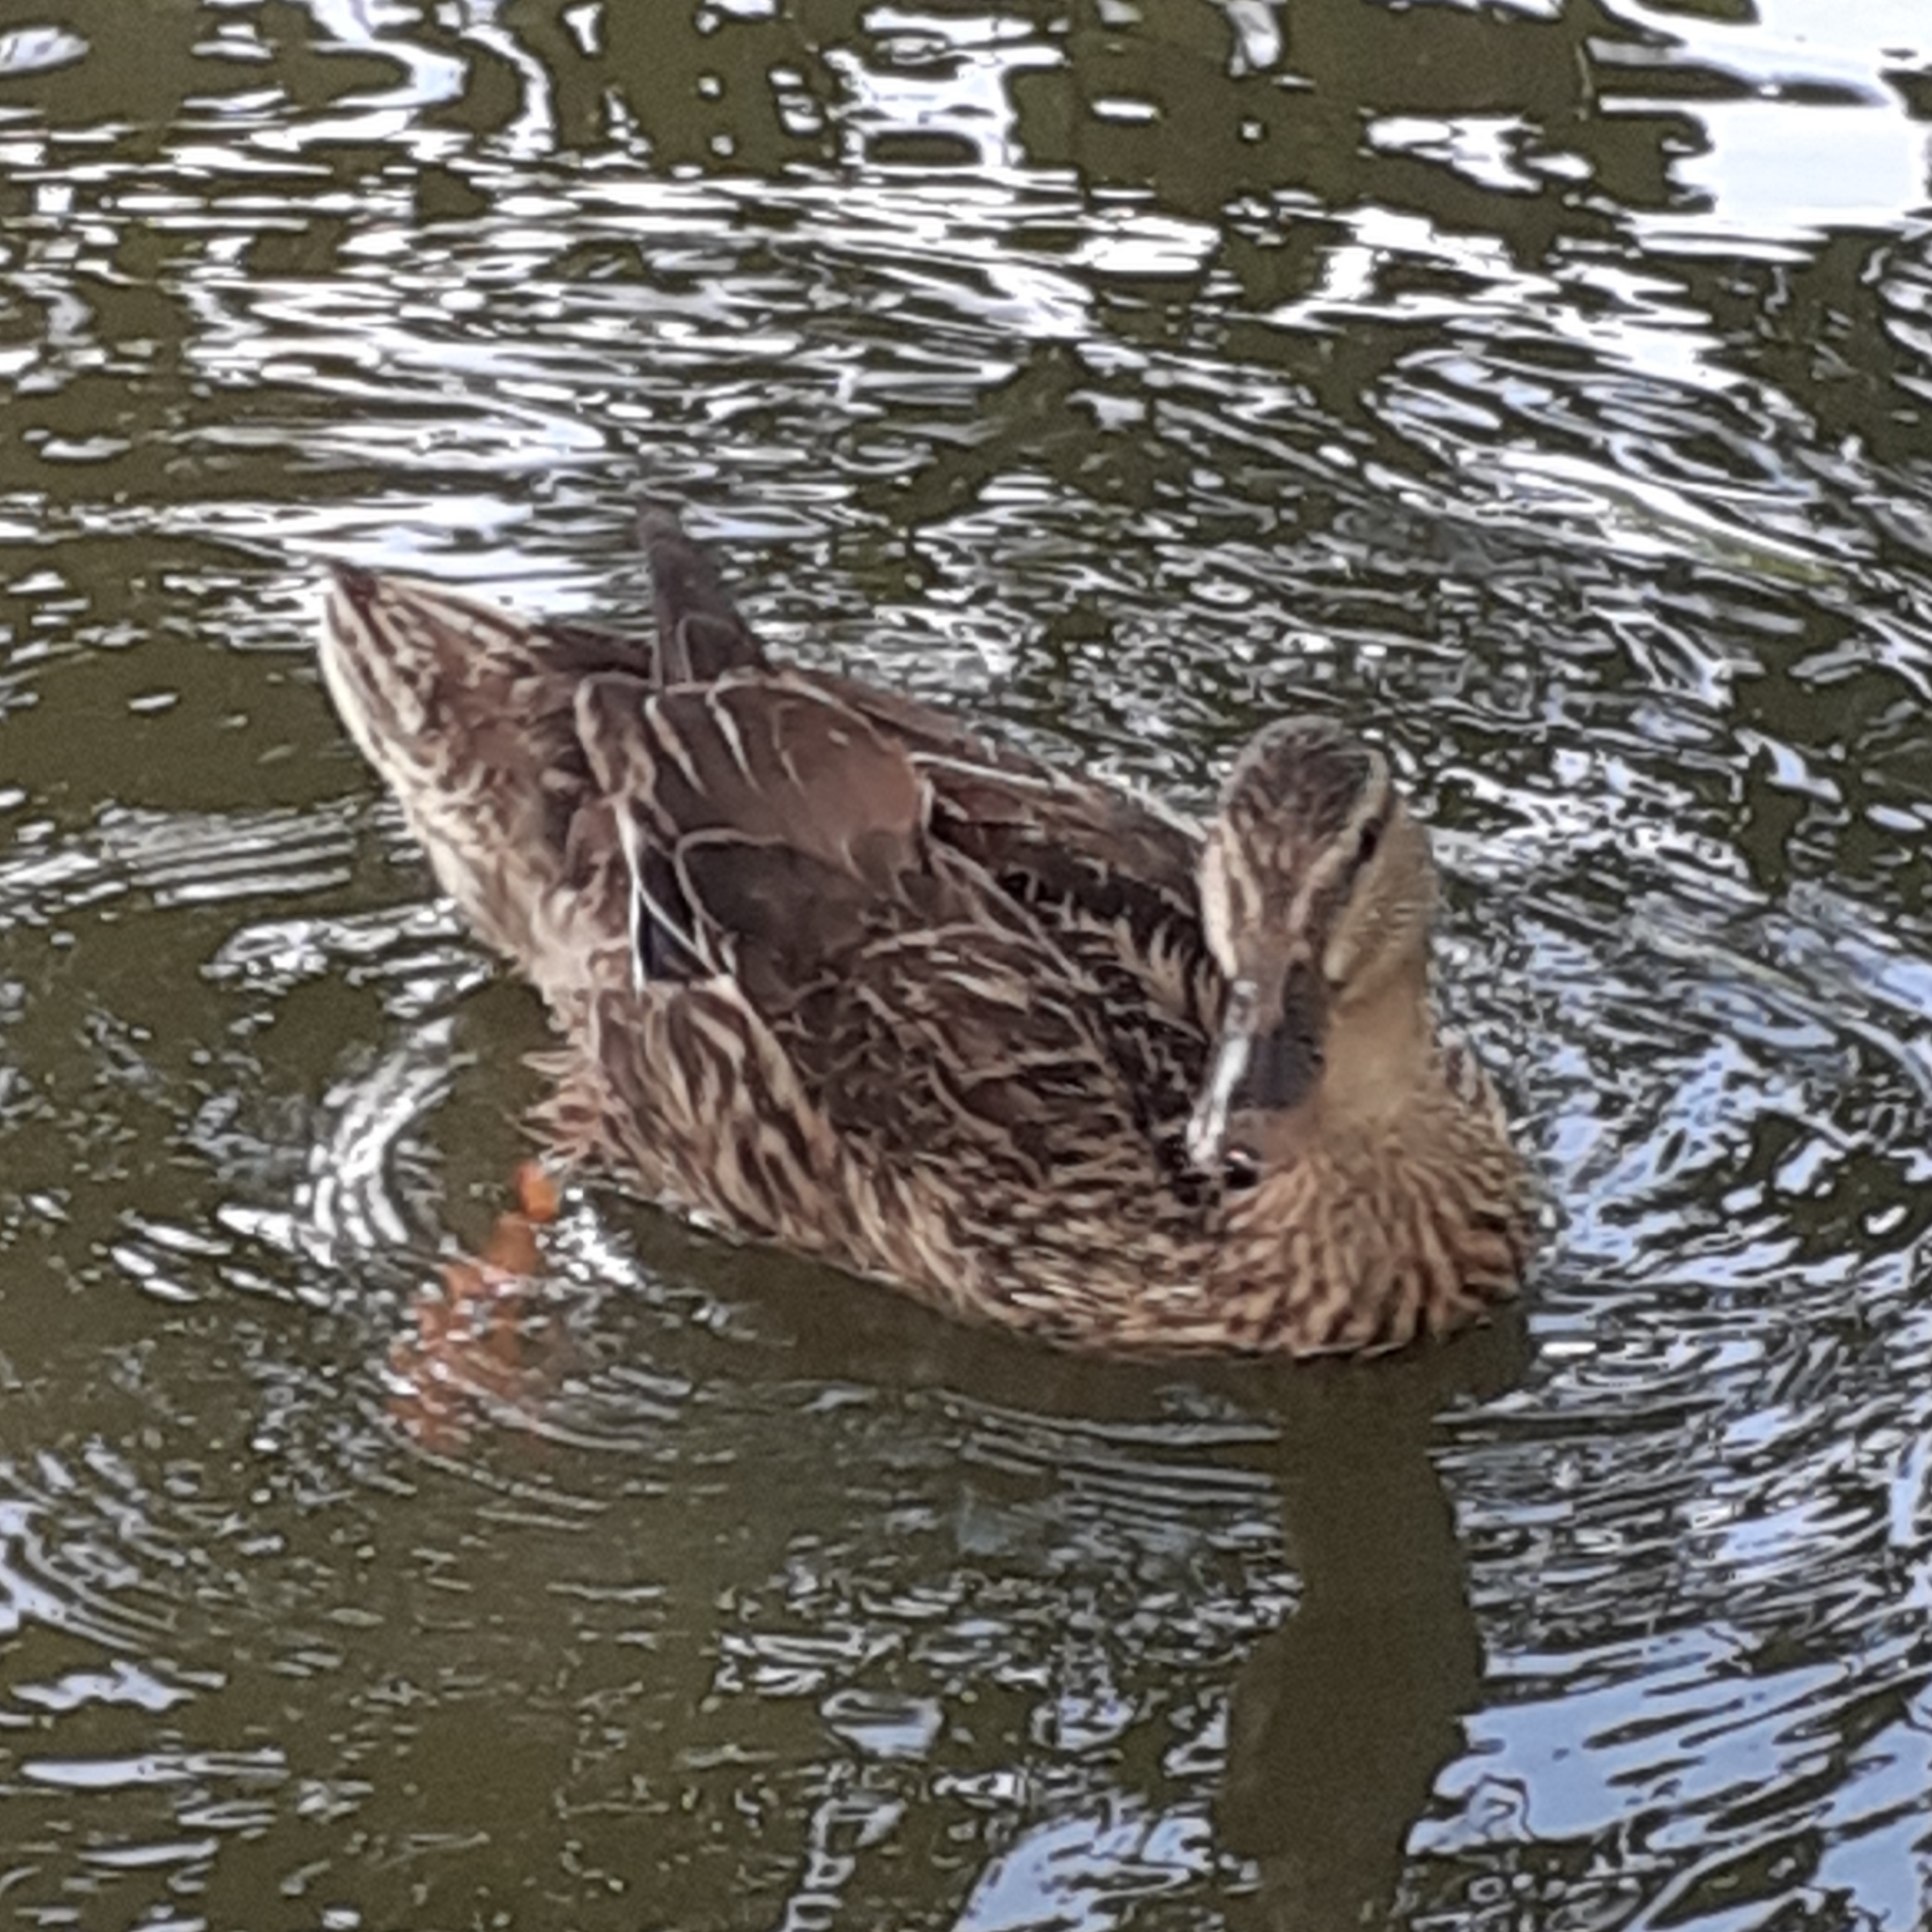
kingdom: Animalia
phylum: Chordata
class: Aves
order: Anseriformes
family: Anatidae
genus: Anas
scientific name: Anas platyrhynchos
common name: Mallard
